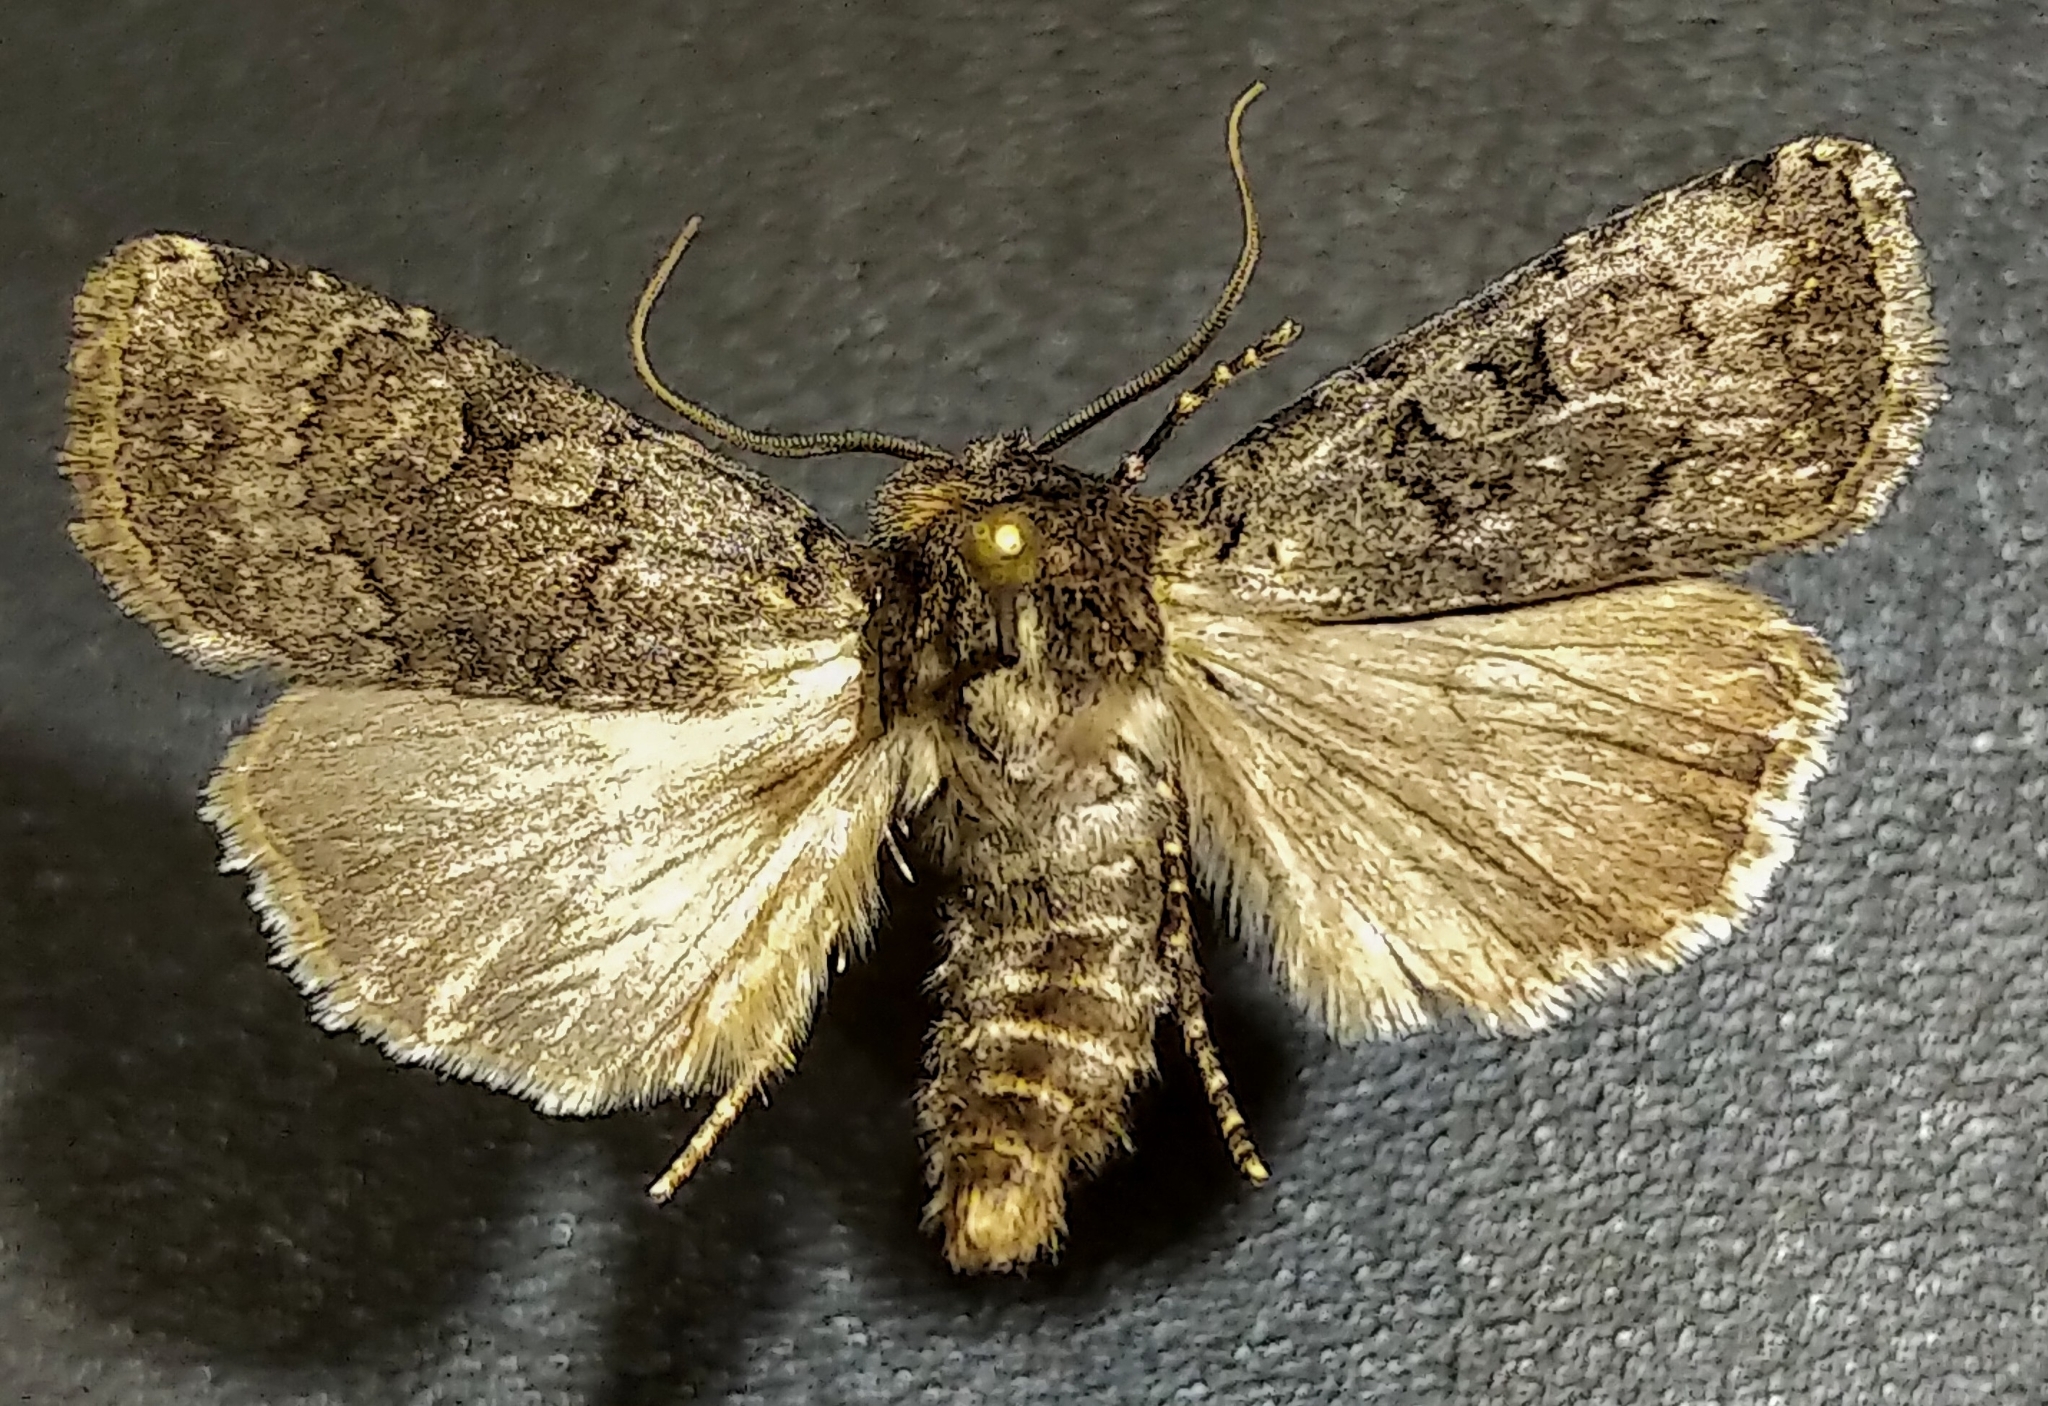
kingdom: Animalia
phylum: Arthropoda
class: Insecta
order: Lepidoptera
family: Noctuidae
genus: Euxoa
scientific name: Euxoa infausta
